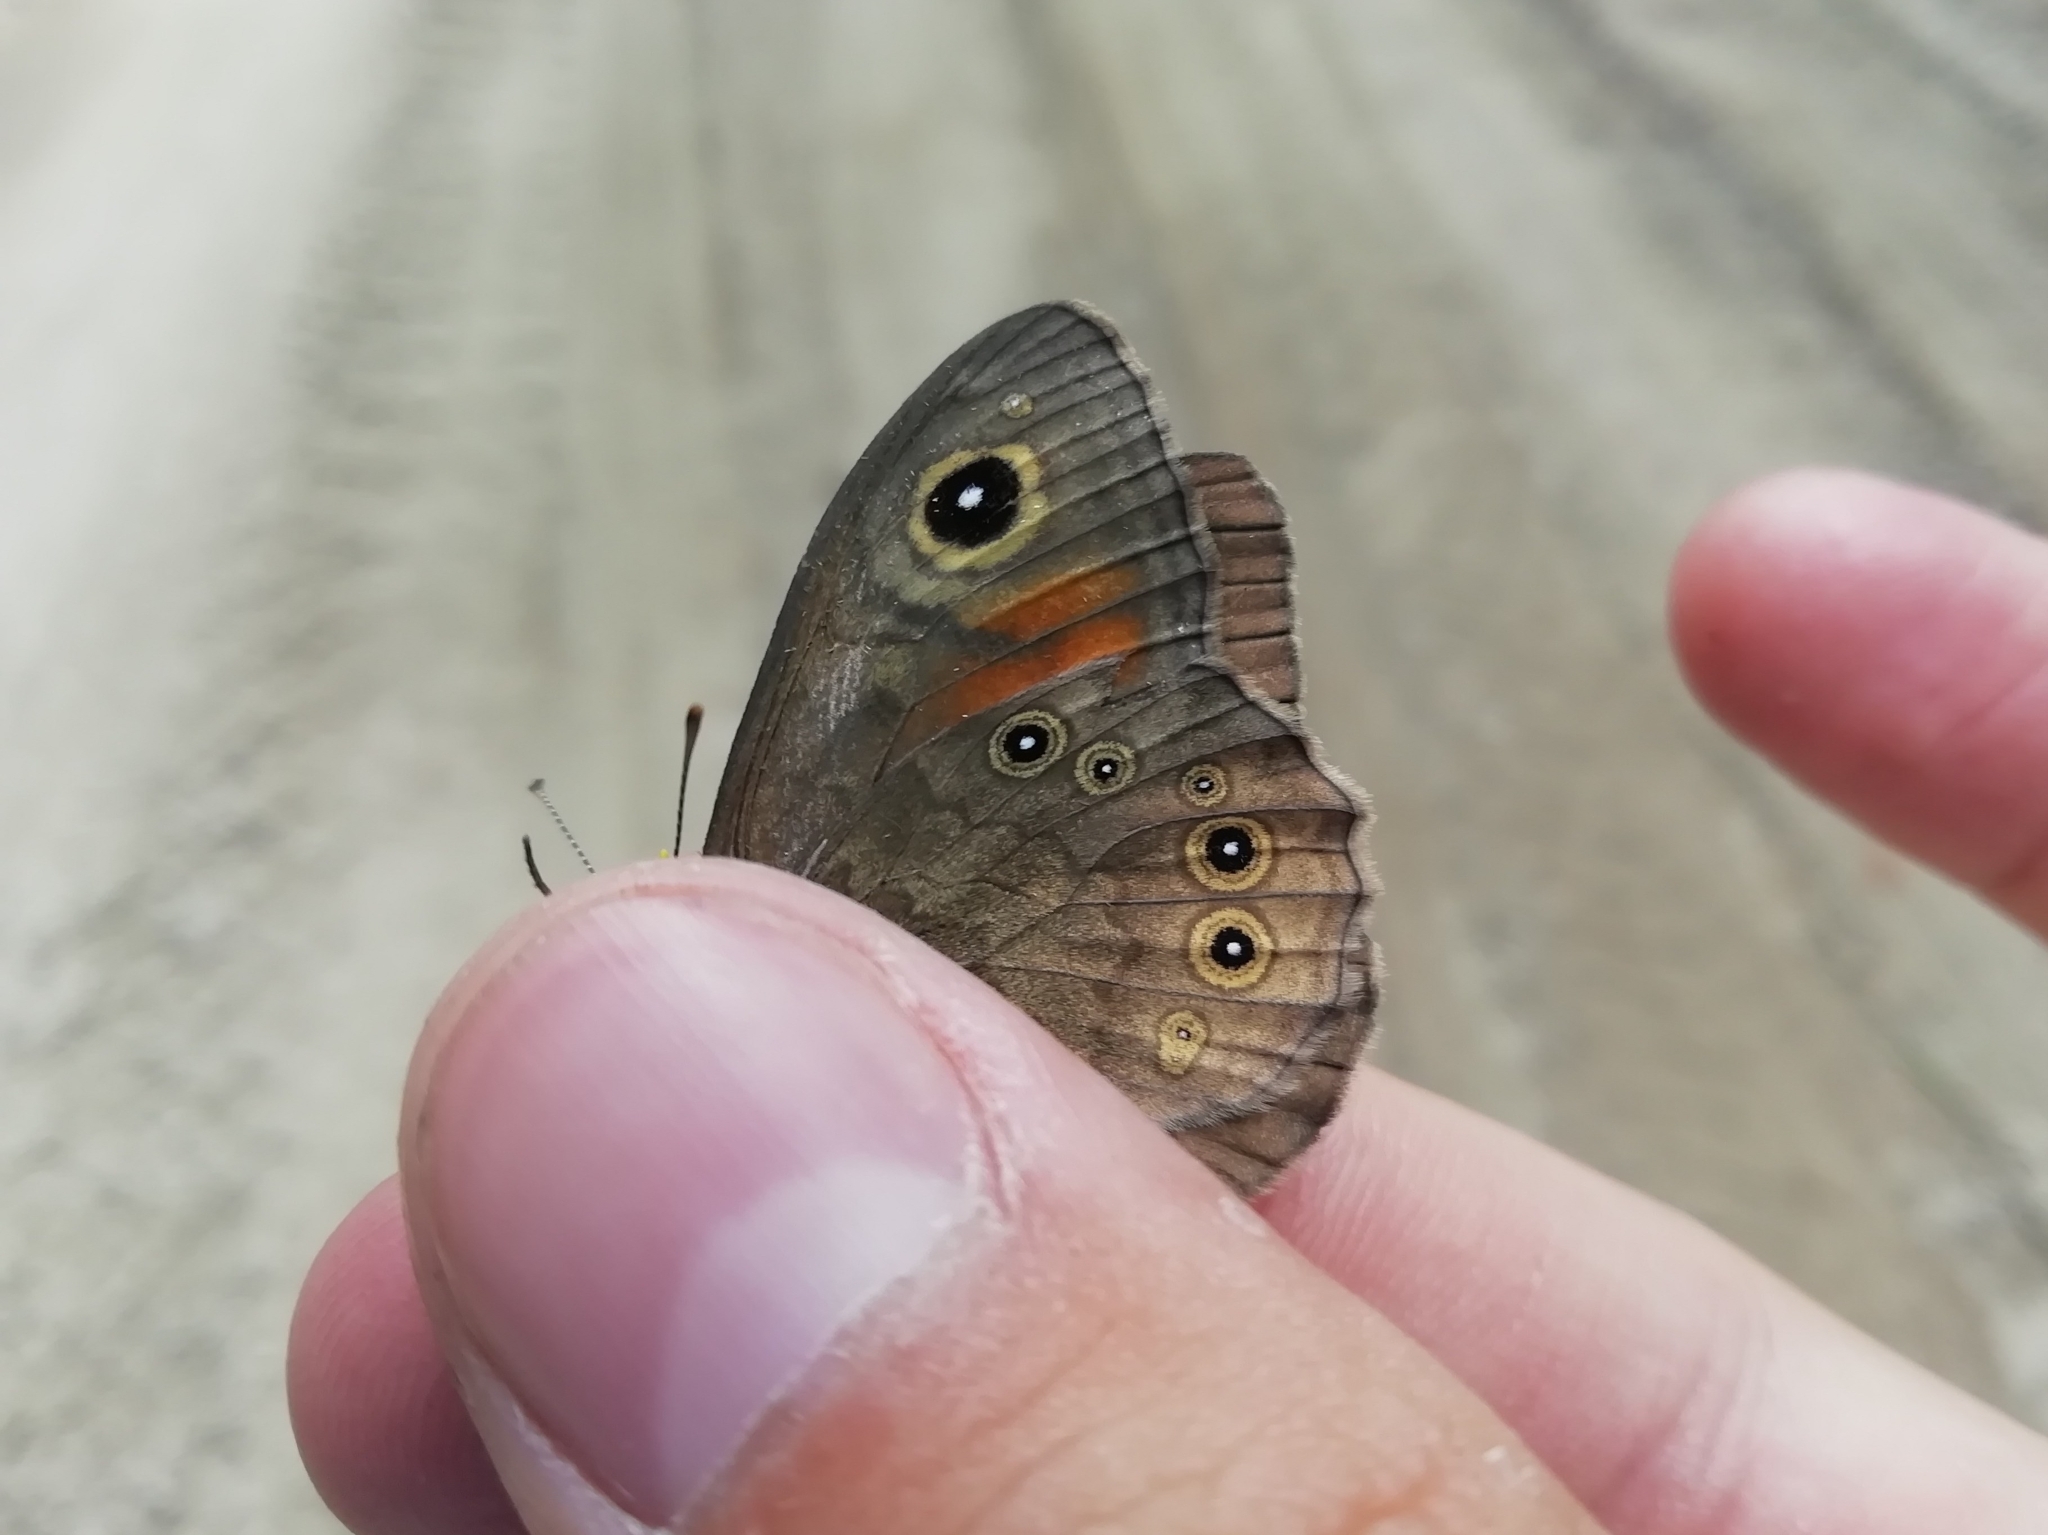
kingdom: Animalia
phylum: Arthropoda
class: Insecta
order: Lepidoptera
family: Nymphalidae
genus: Pararge
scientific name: Pararge Lasiommata maera
